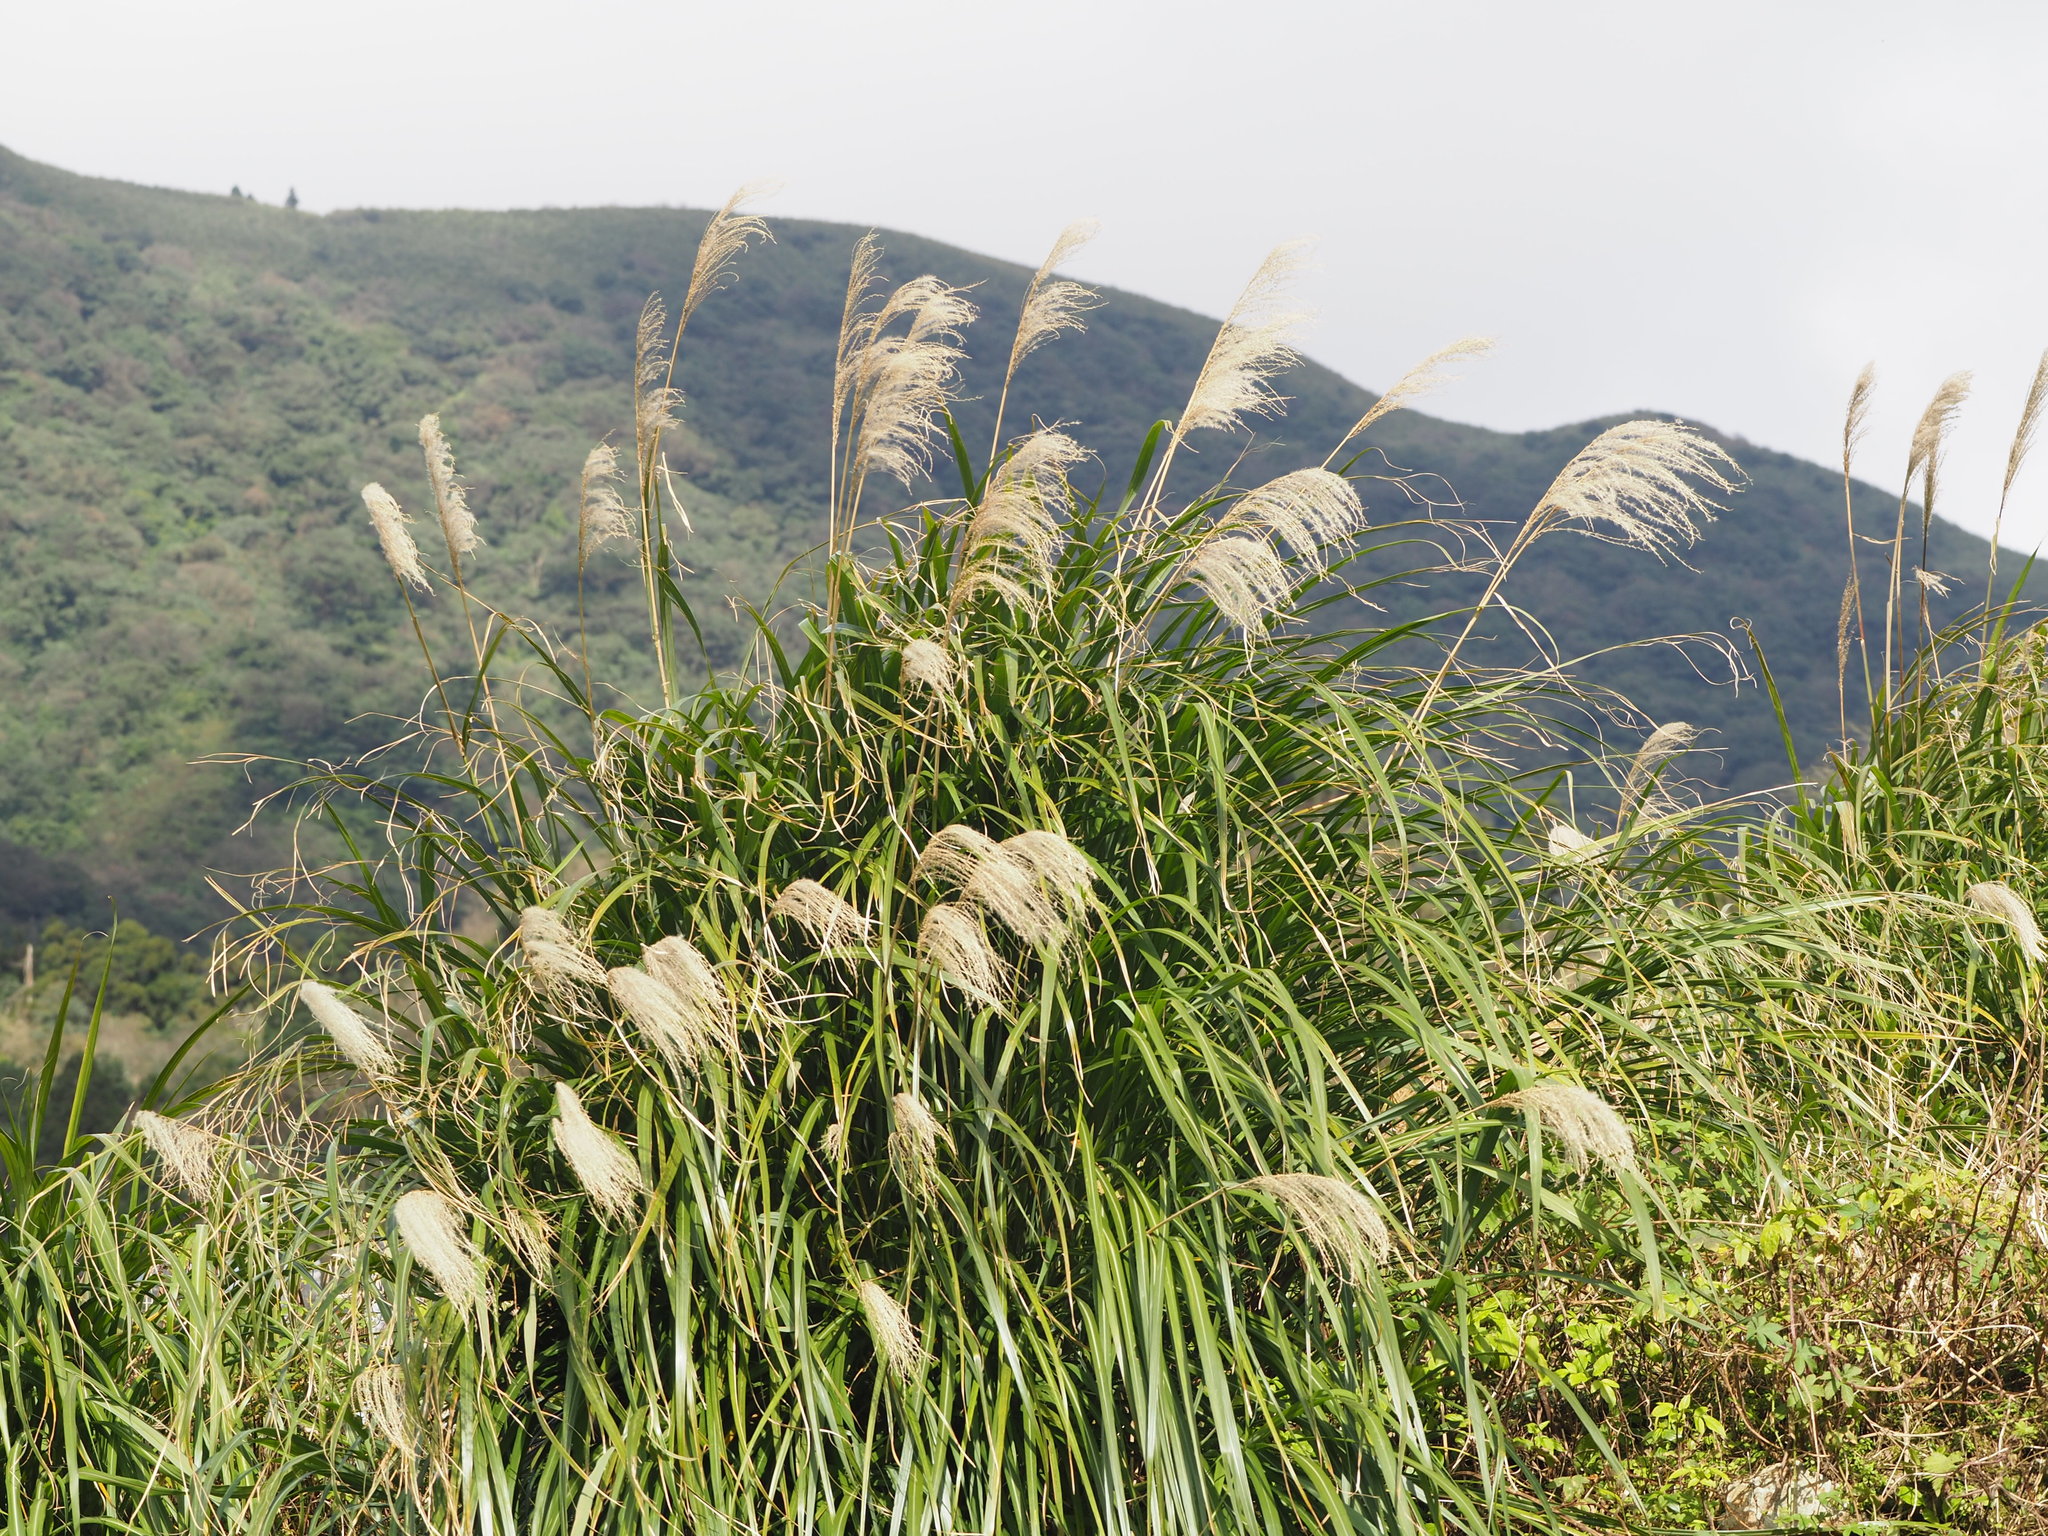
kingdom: Plantae
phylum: Tracheophyta
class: Liliopsida
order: Poales
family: Poaceae
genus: Miscanthus
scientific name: Miscanthus sinensis
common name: Chinese silvergrass
